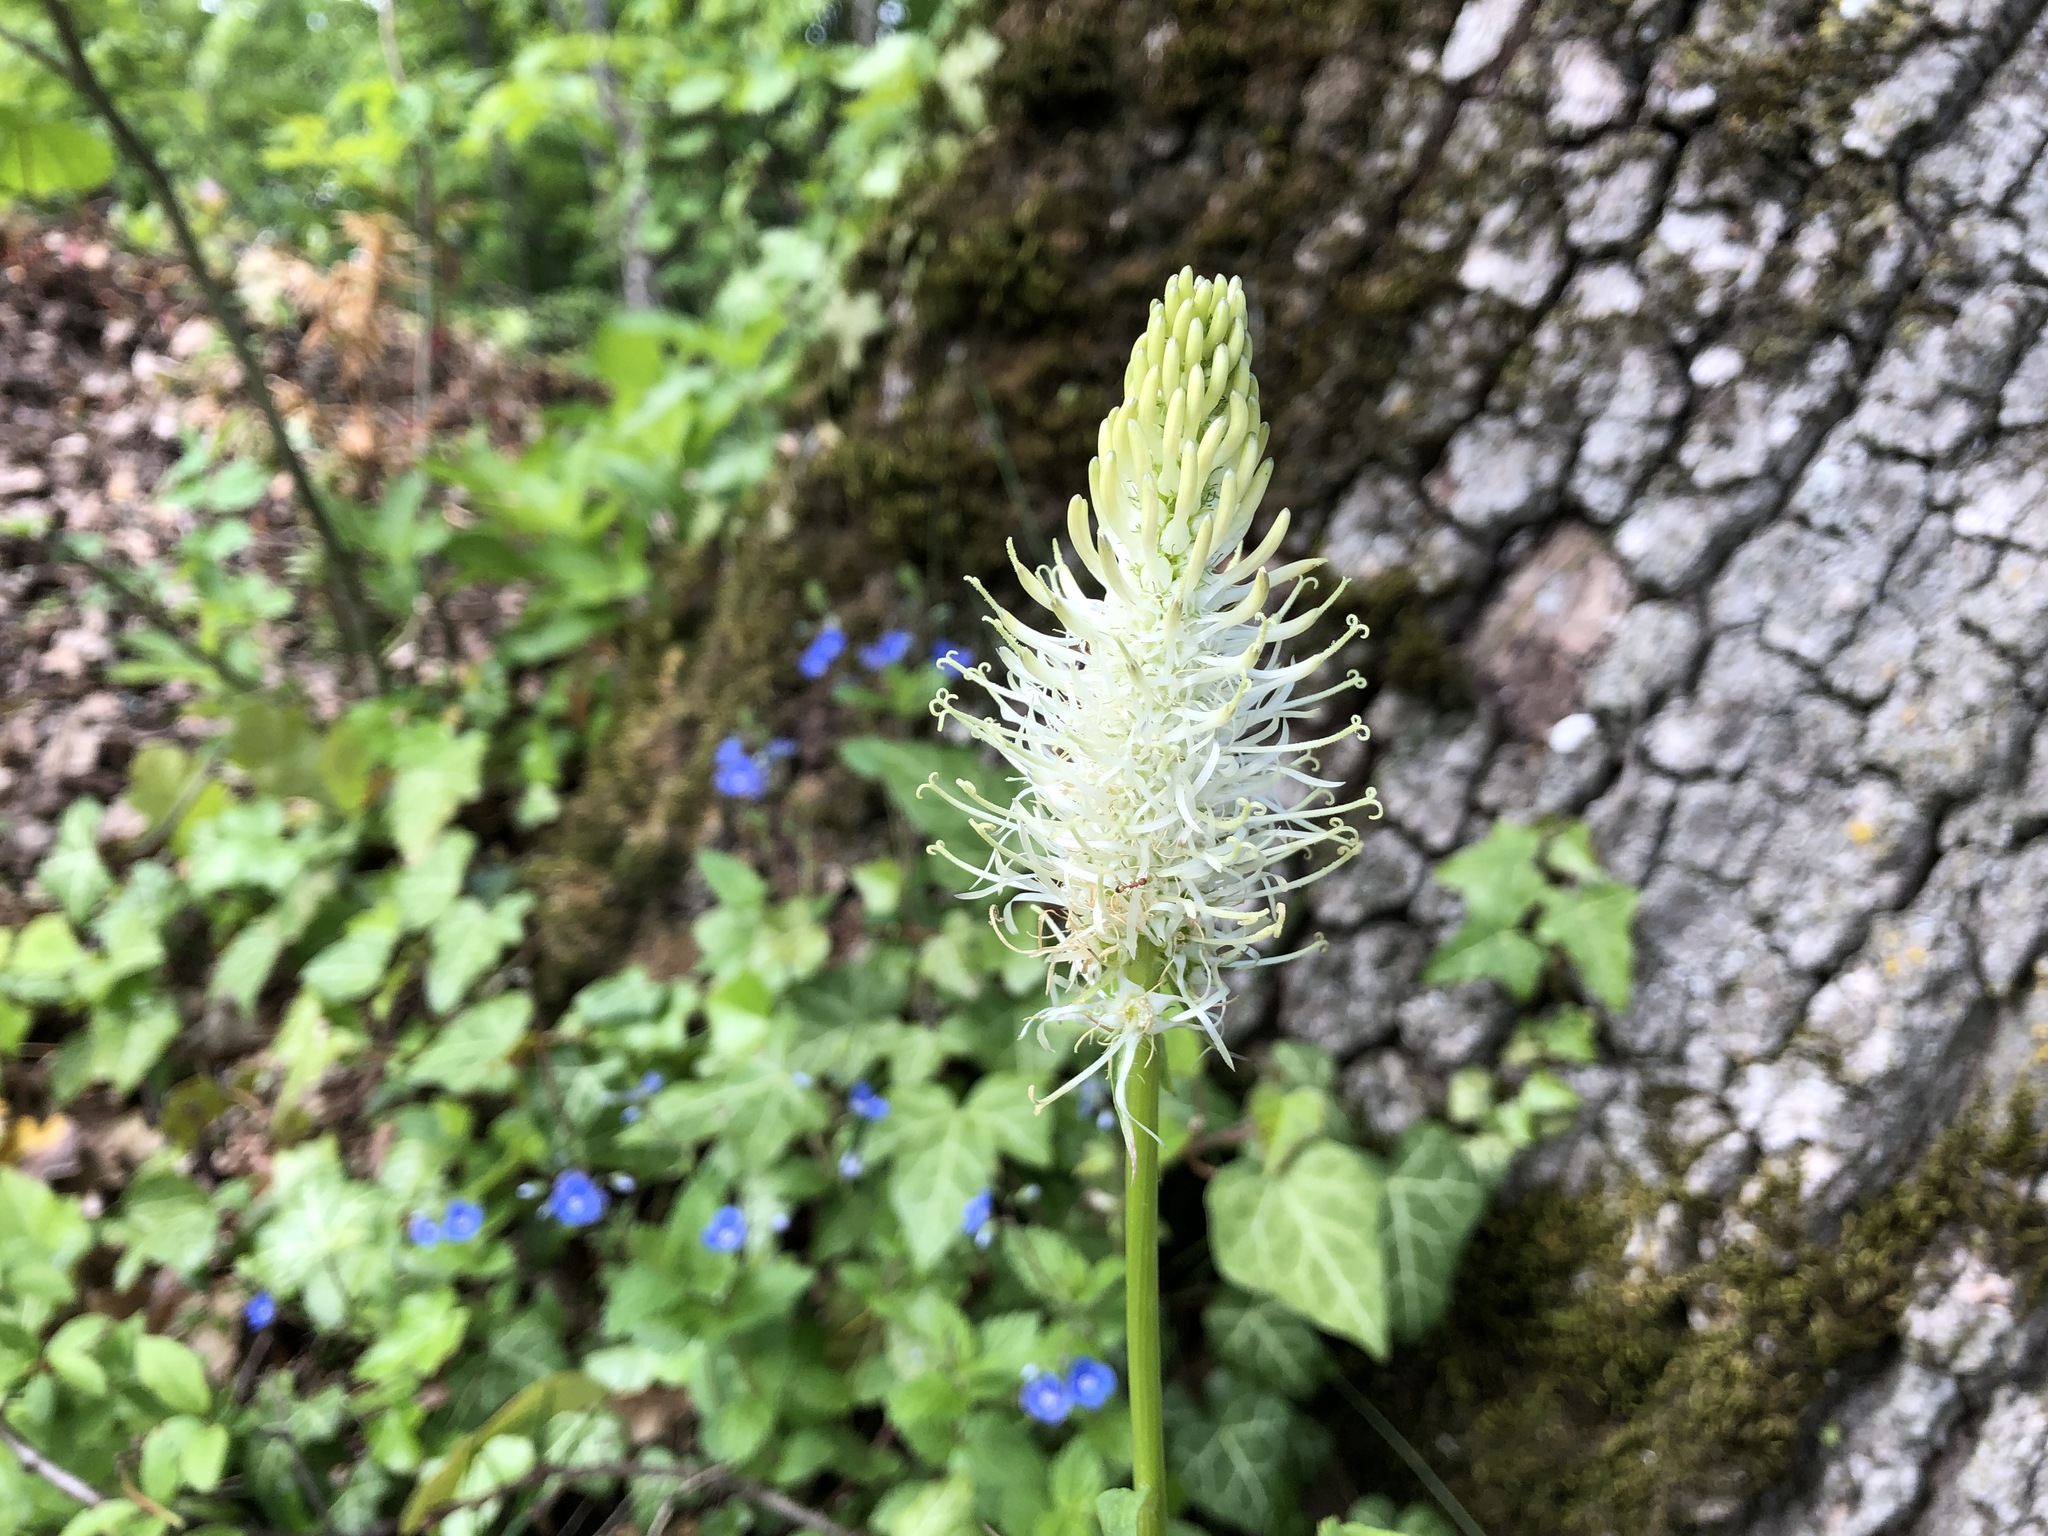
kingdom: Plantae
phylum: Tracheophyta
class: Magnoliopsida
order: Asterales
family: Campanulaceae
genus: Phyteuma
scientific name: Phyteuma spicatum
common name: Spiked rampion
